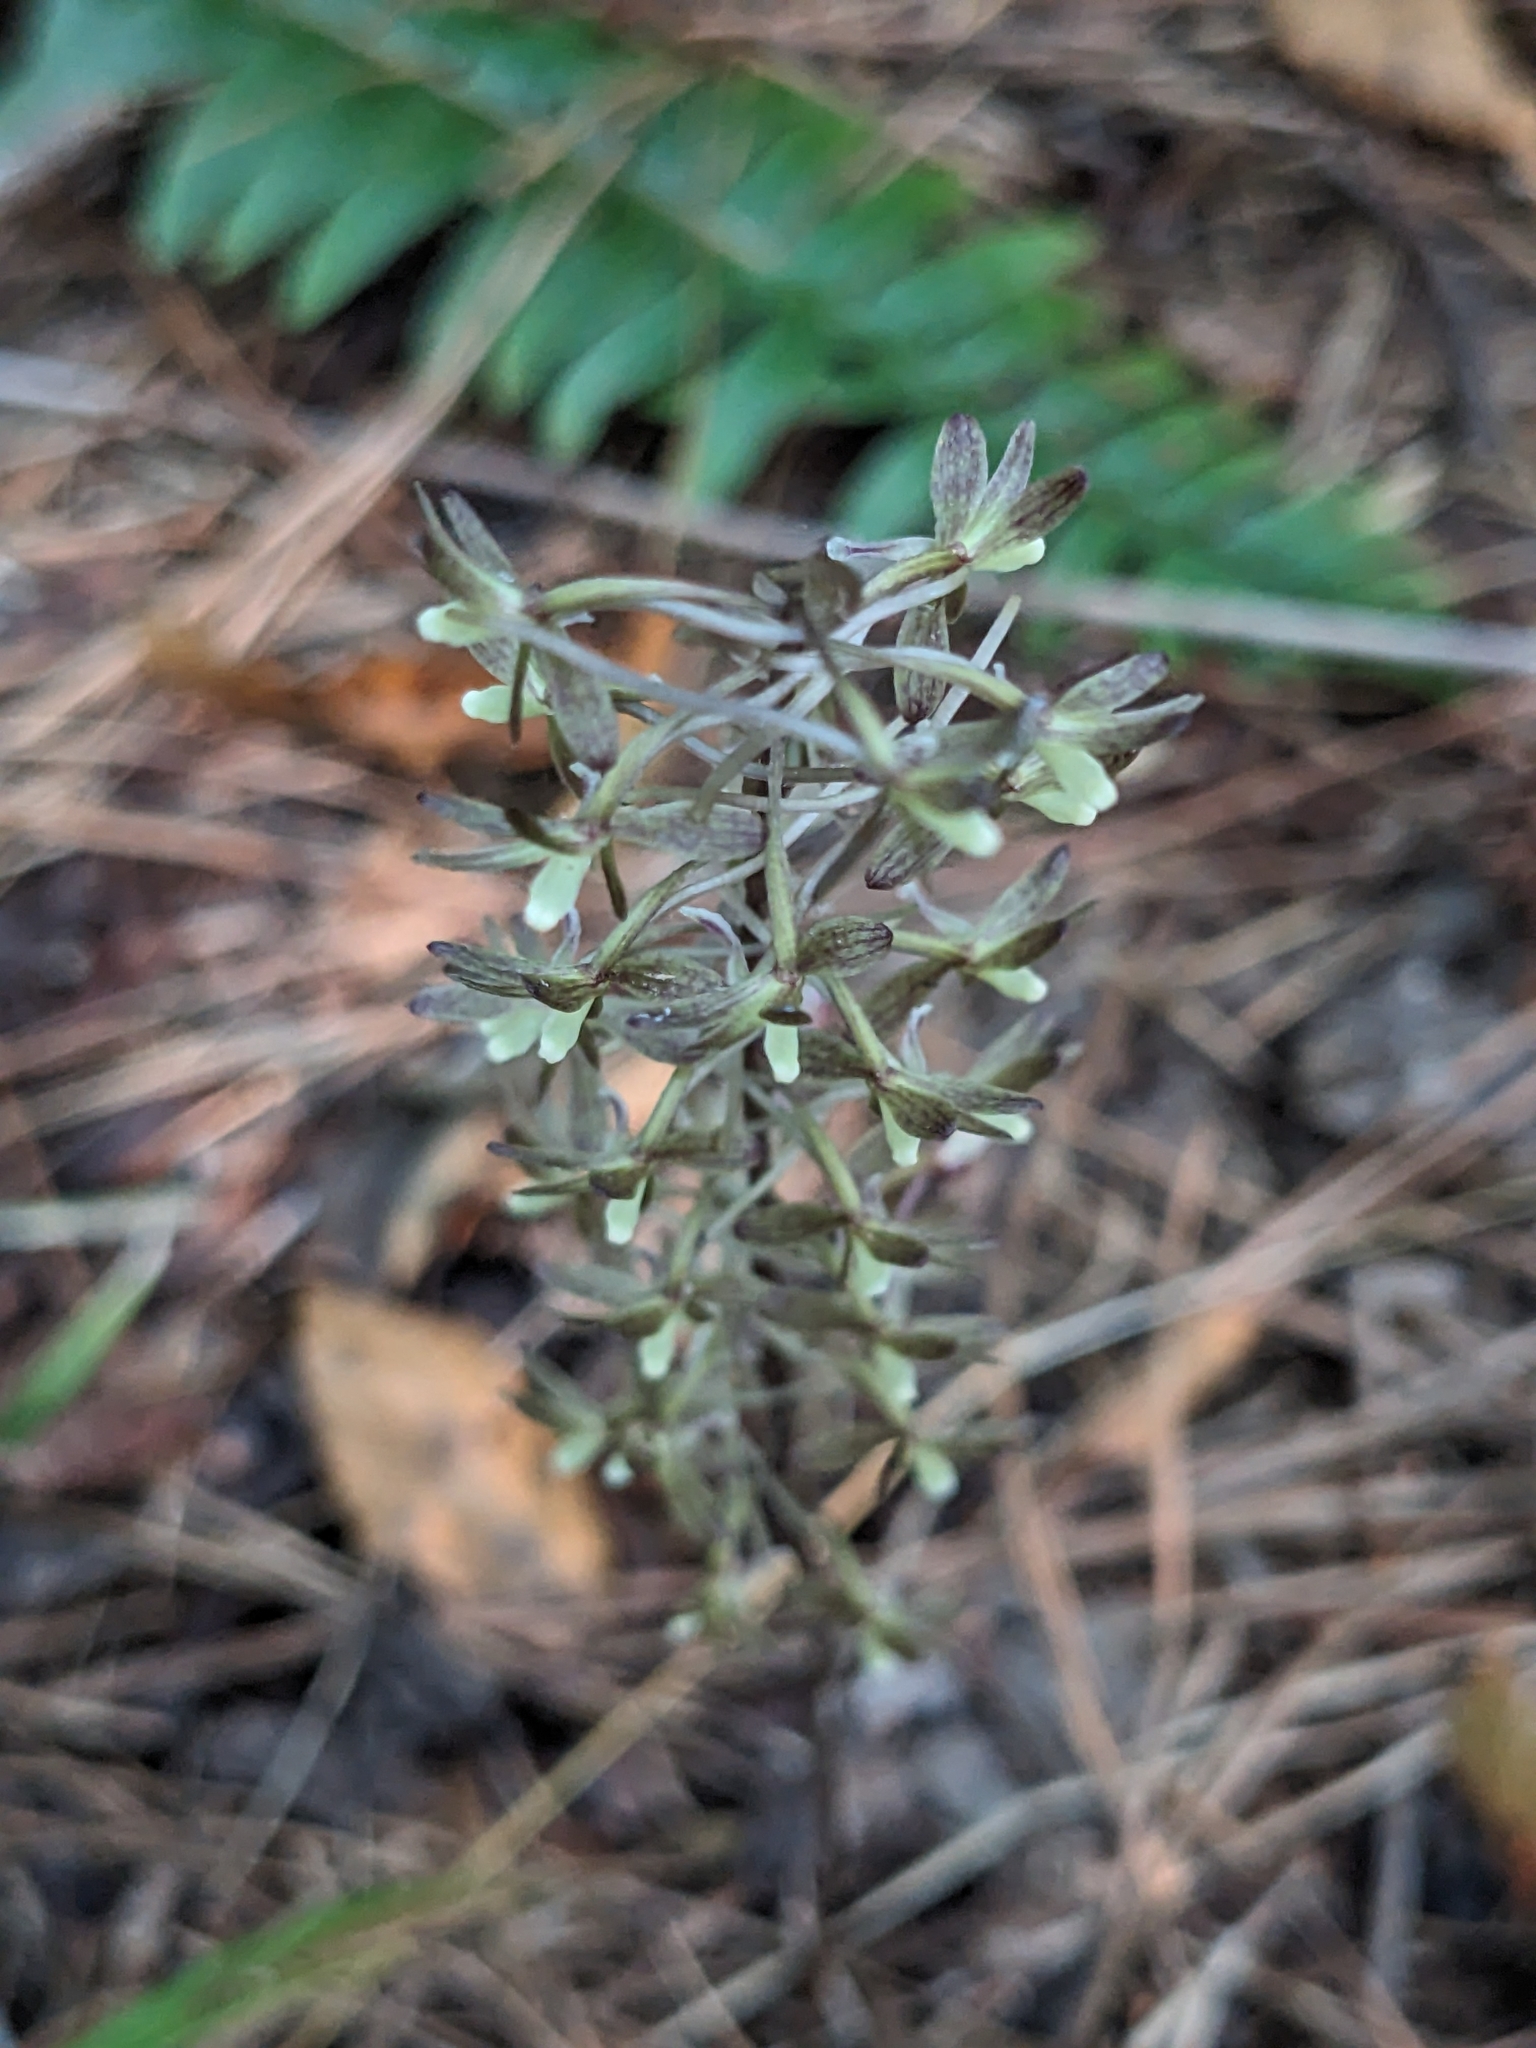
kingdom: Plantae
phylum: Tracheophyta
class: Liliopsida
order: Asparagales
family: Orchidaceae
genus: Tipularia
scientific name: Tipularia discolor
